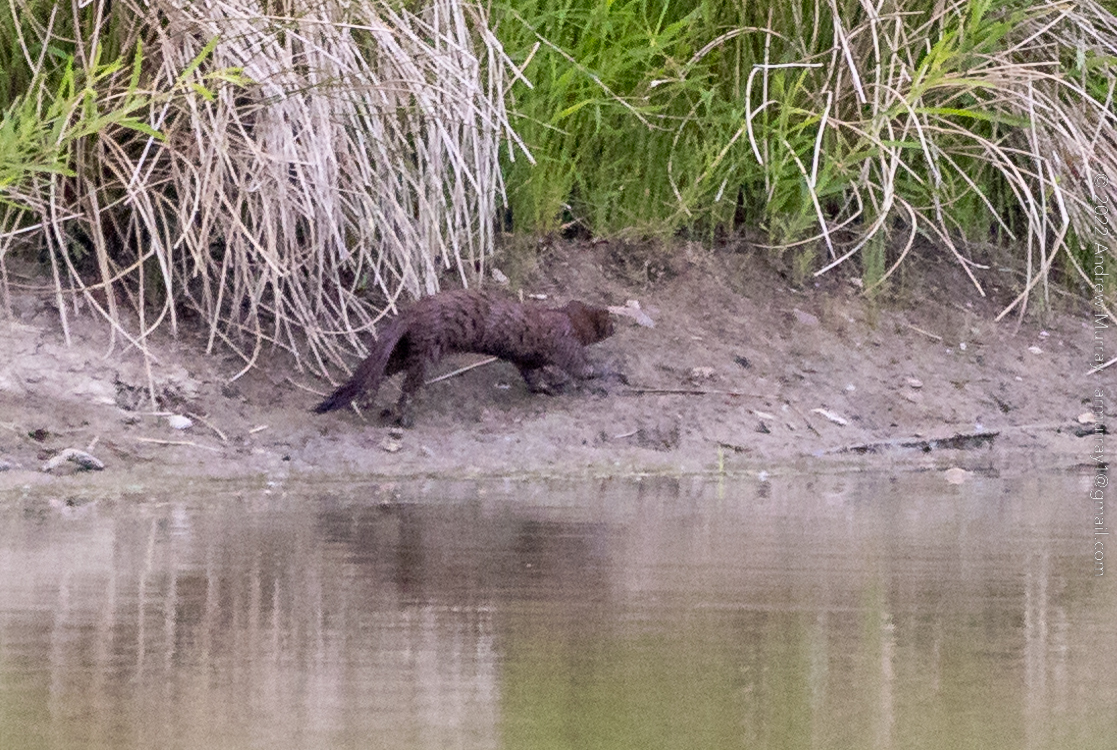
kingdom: Animalia
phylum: Chordata
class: Mammalia
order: Carnivora
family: Mustelidae
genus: Mustela
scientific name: Mustela
